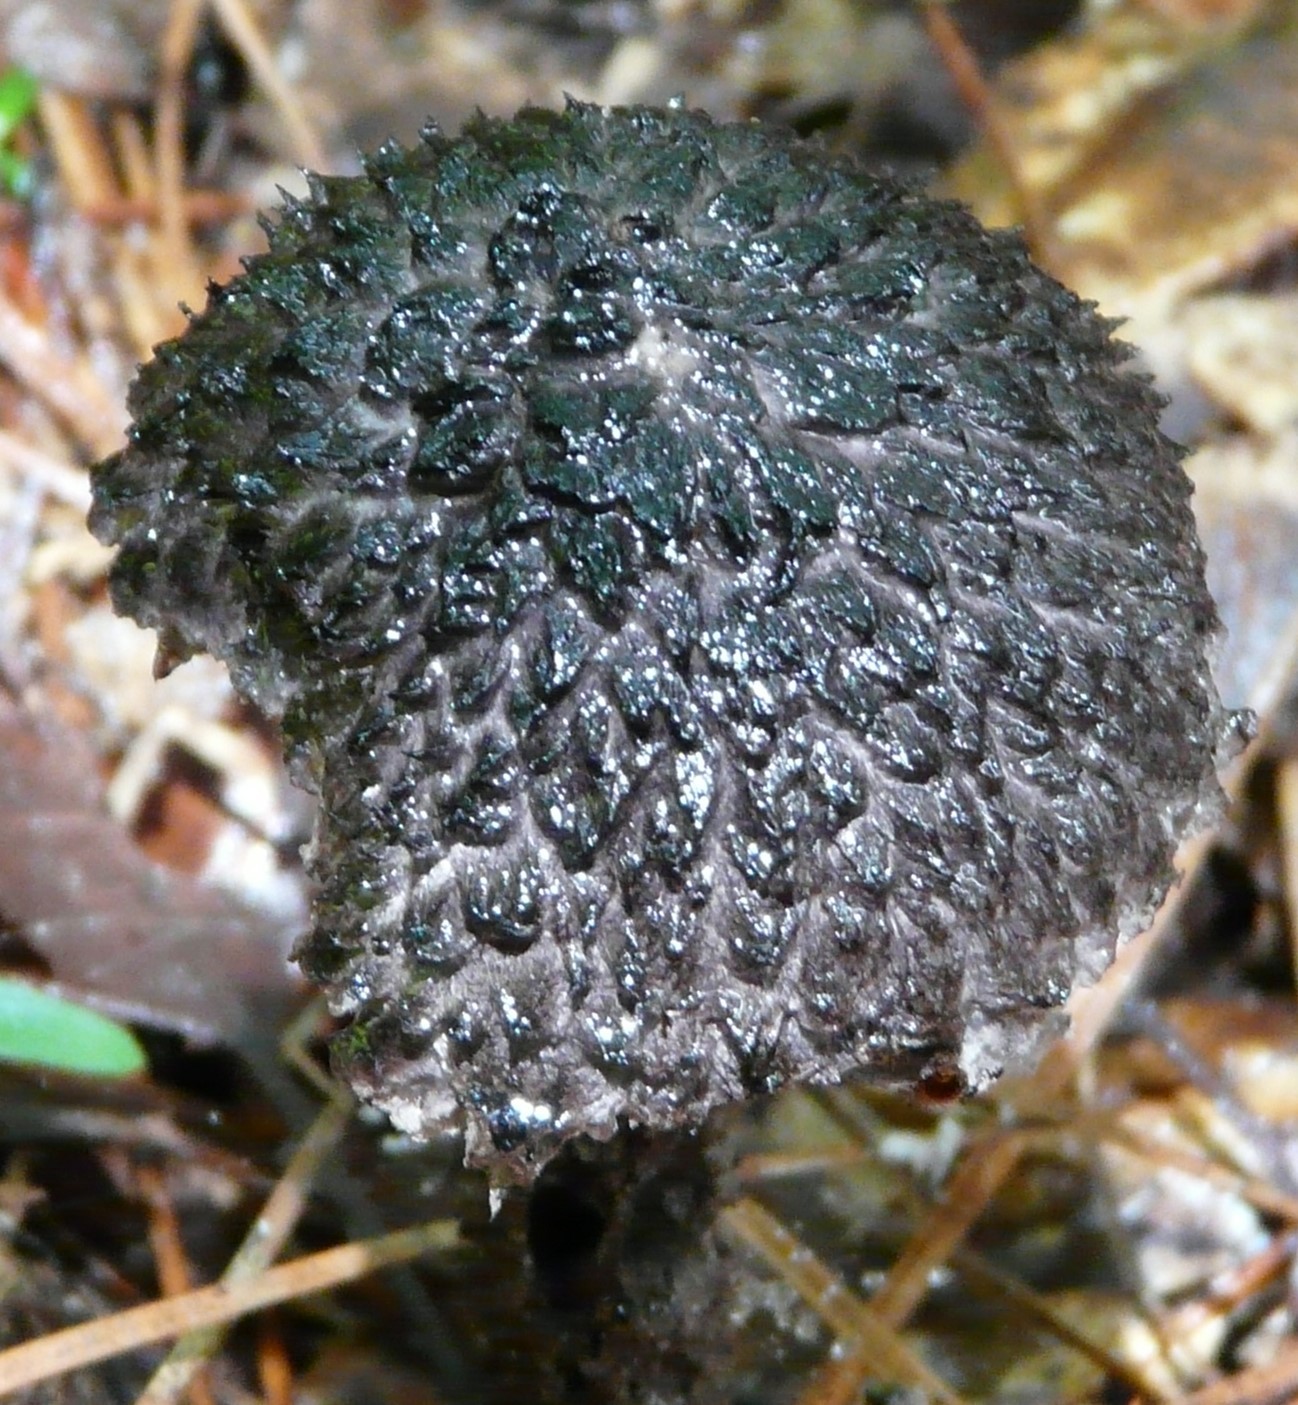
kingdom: Fungi
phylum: Basidiomycota
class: Agaricomycetes
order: Boletales
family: Boletaceae
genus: Strobilomyces
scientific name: Strobilomyces strobilaceus
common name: Old man of the woods
